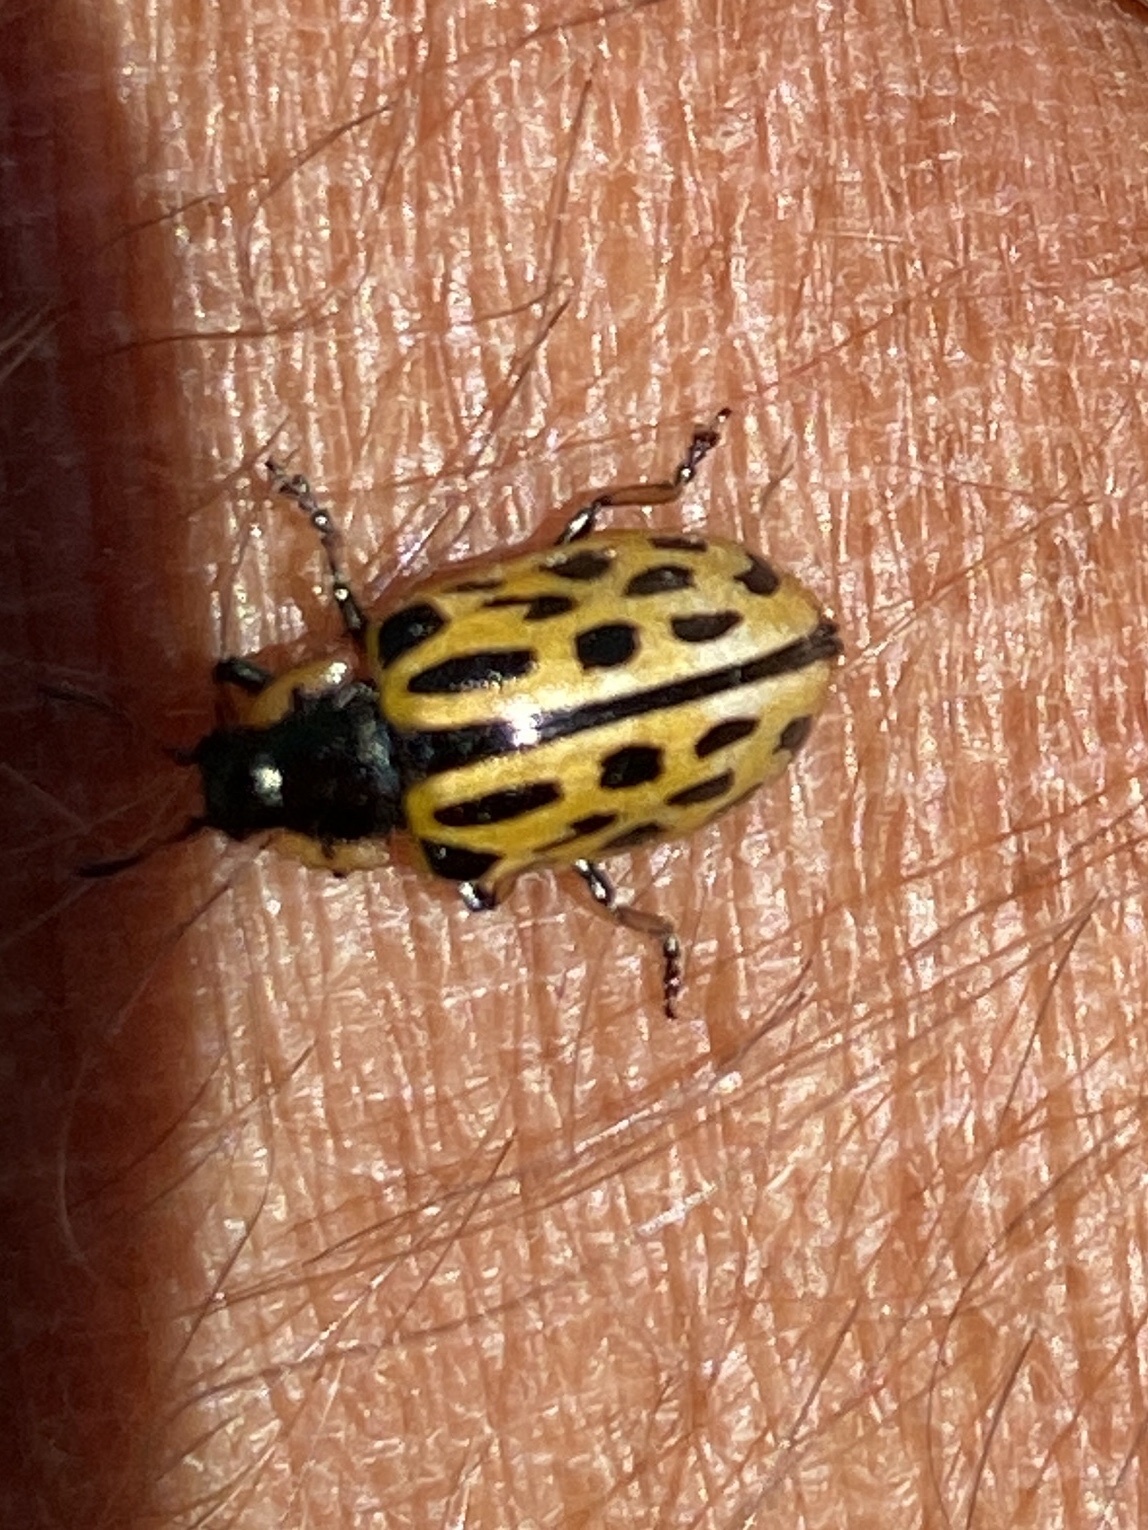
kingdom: Animalia
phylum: Arthropoda
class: Insecta
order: Coleoptera
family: Chrysomelidae
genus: Chrysomela
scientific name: Chrysomela vigintipunctata
